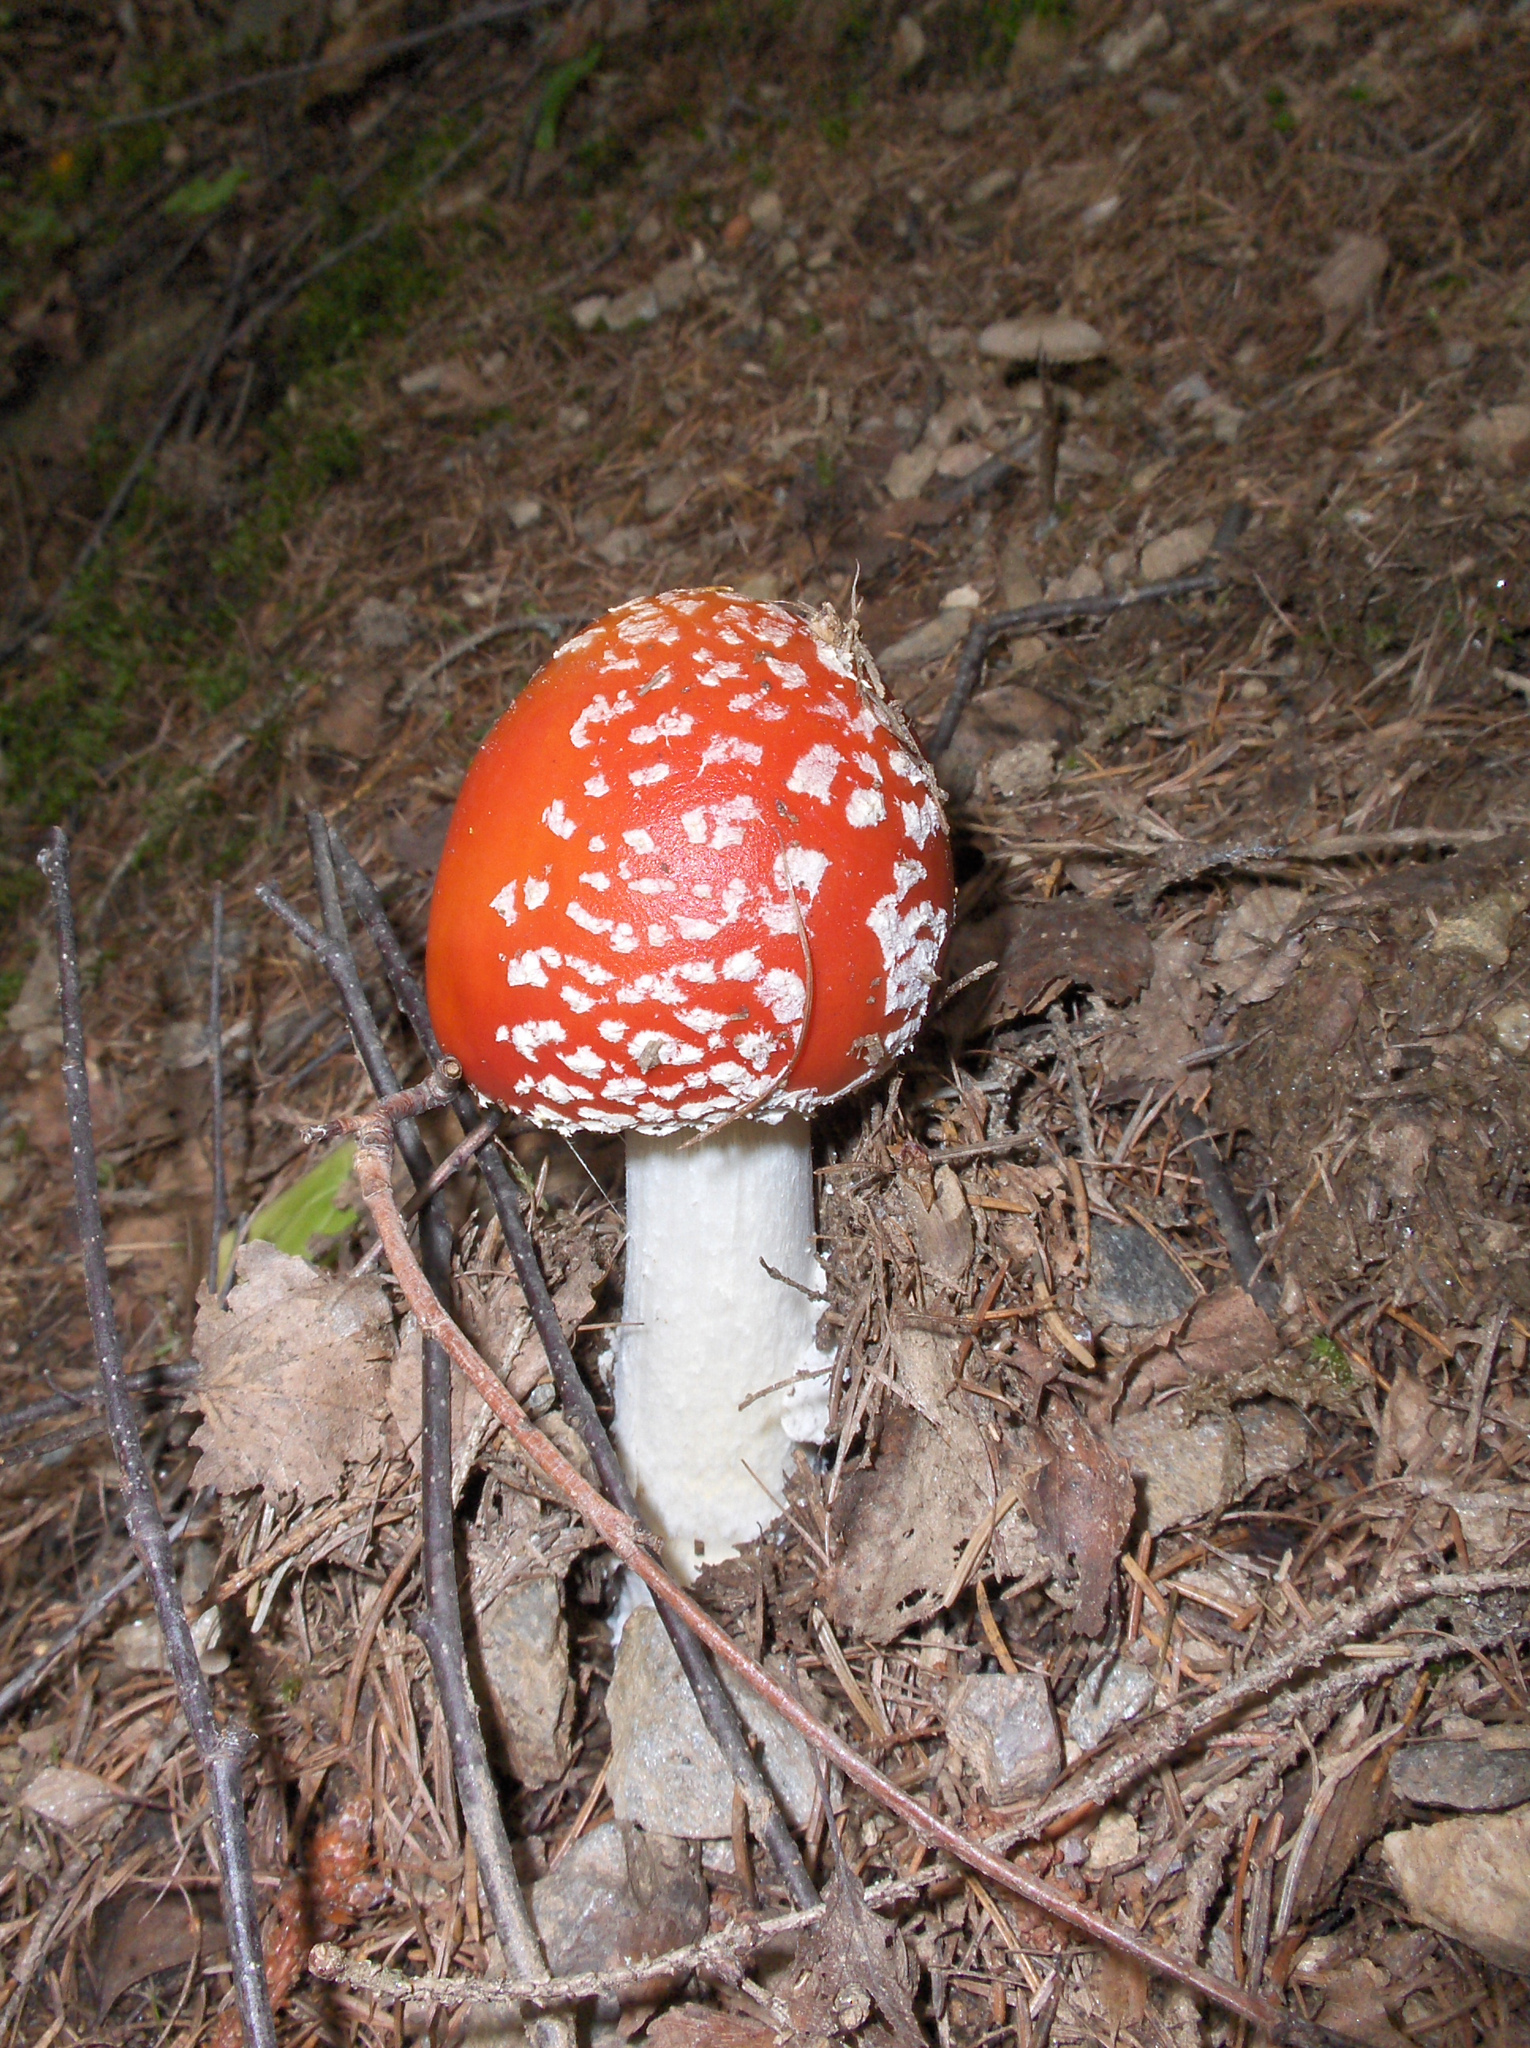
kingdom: Fungi
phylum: Basidiomycota
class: Agaricomycetes
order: Agaricales
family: Amanitaceae
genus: Amanita
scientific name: Amanita muscaria
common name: Fly agaric
